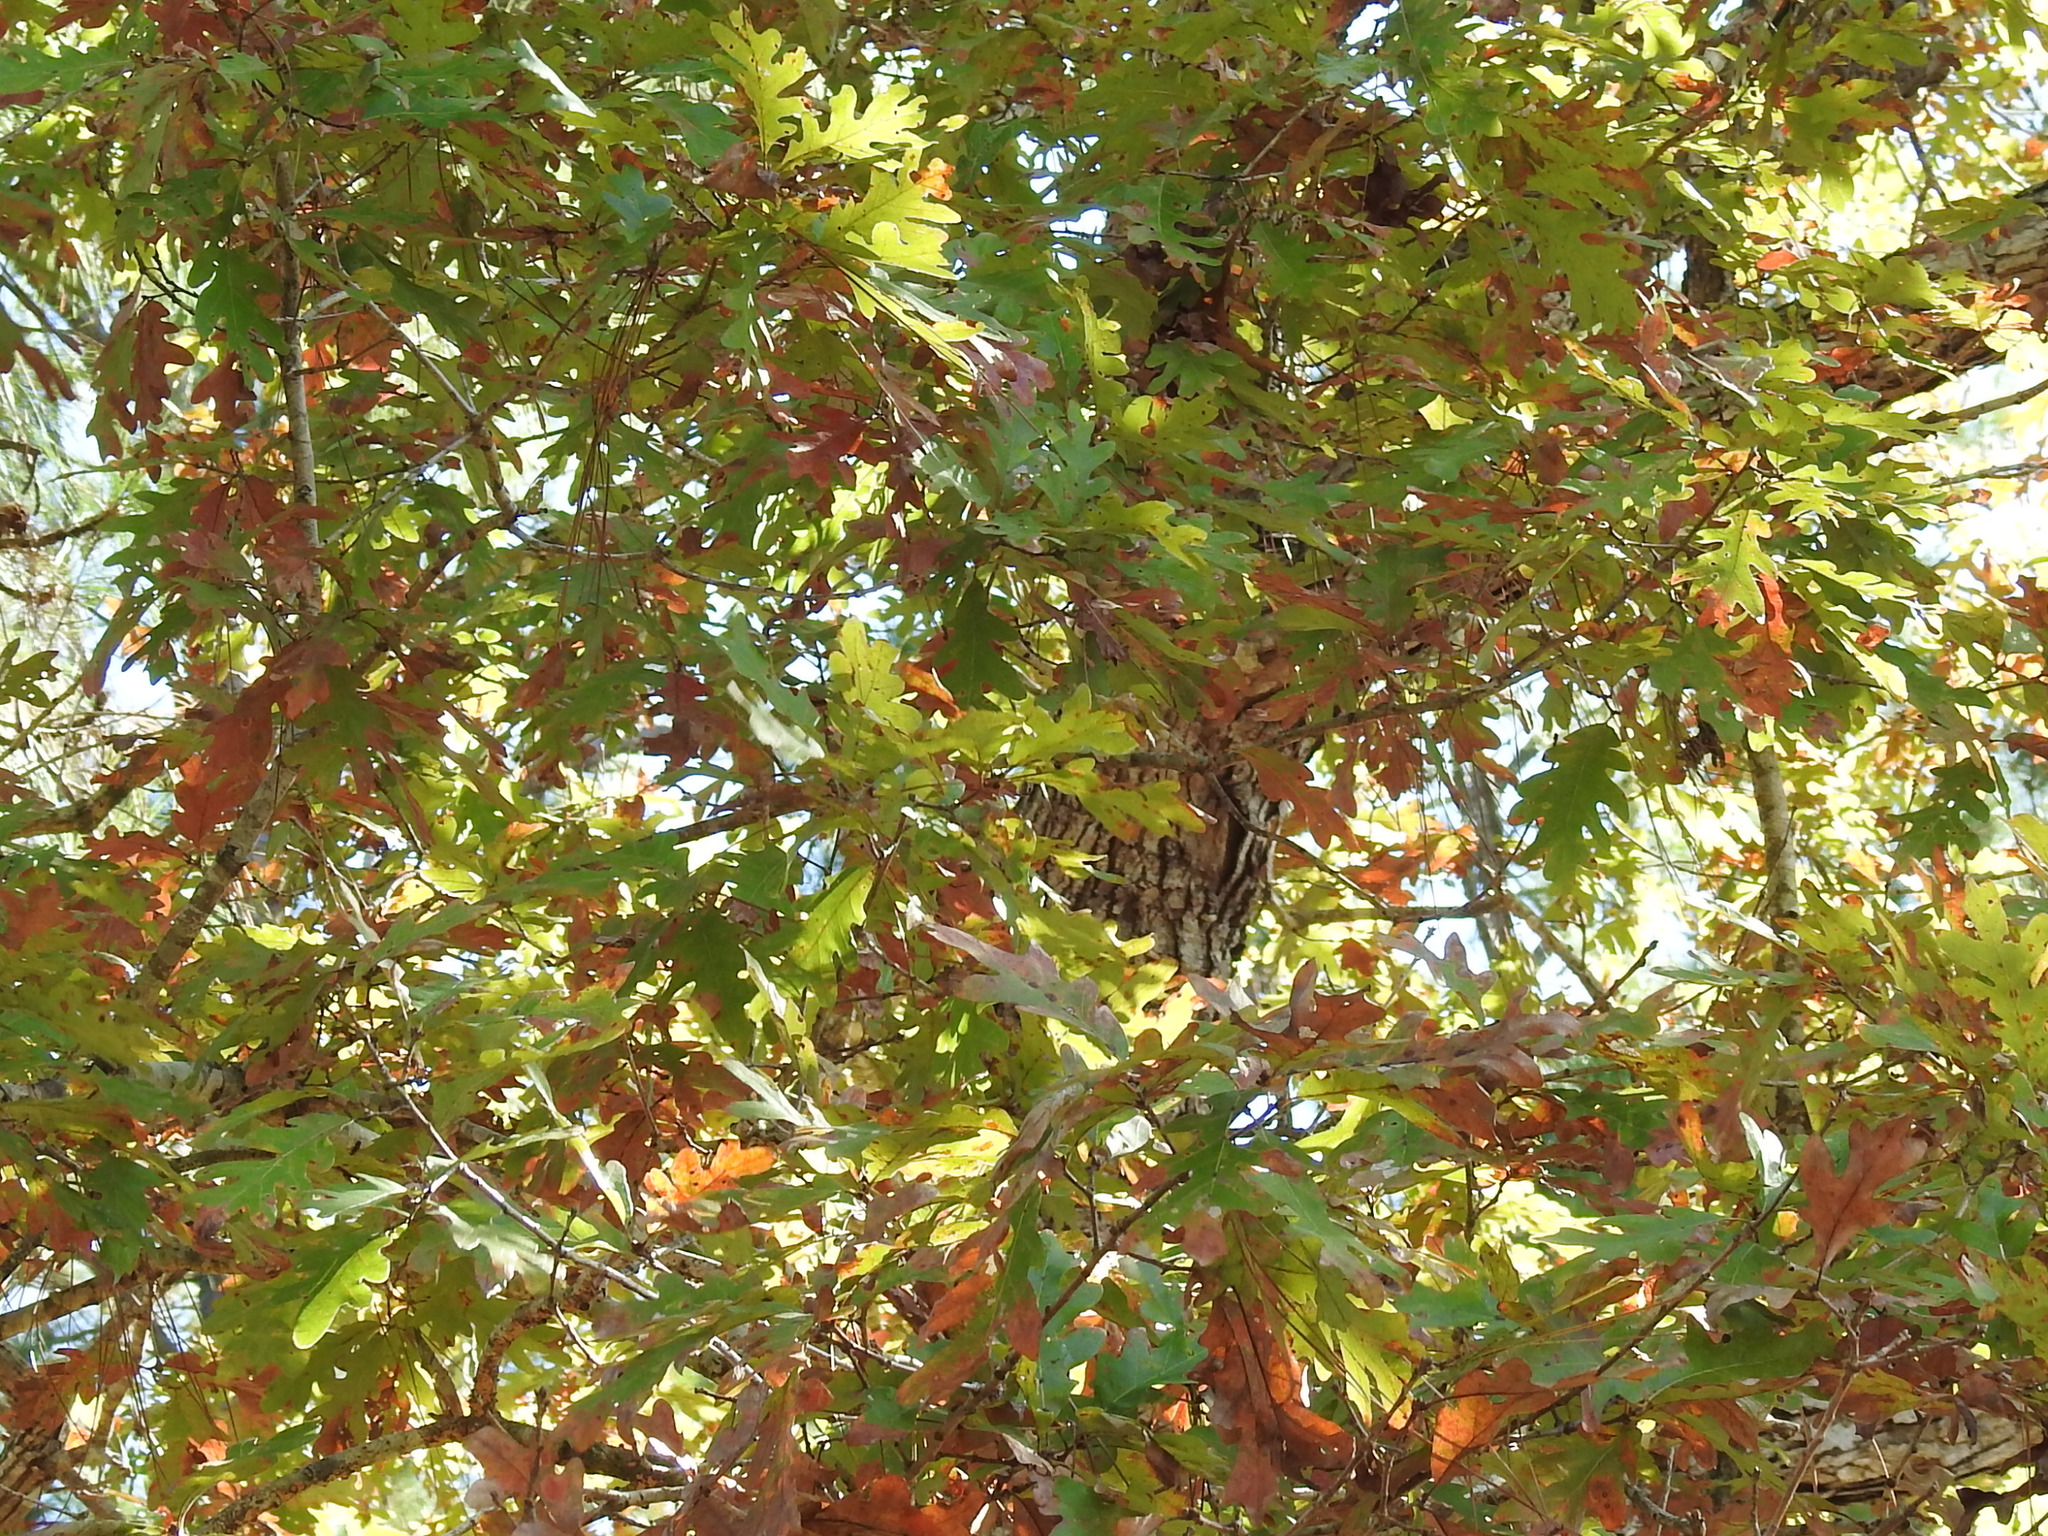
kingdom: Plantae
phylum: Tracheophyta
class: Magnoliopsida
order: Fagales
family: Fagaceae
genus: Quercus
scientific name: Quercus alba
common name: White oak
